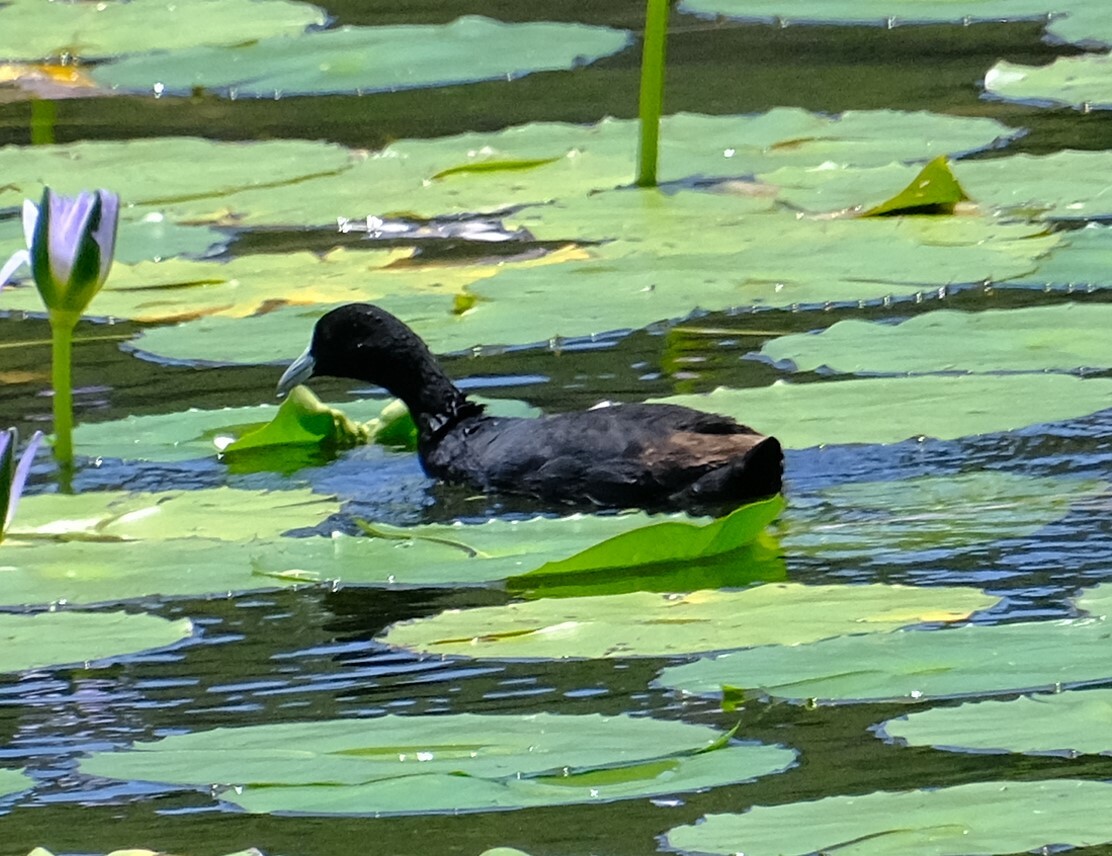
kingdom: Animalia
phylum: Chordata
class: Aves
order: Gruiformes
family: Rallidae
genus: Fulica
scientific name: Fulica atra
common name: Eurasian coot
